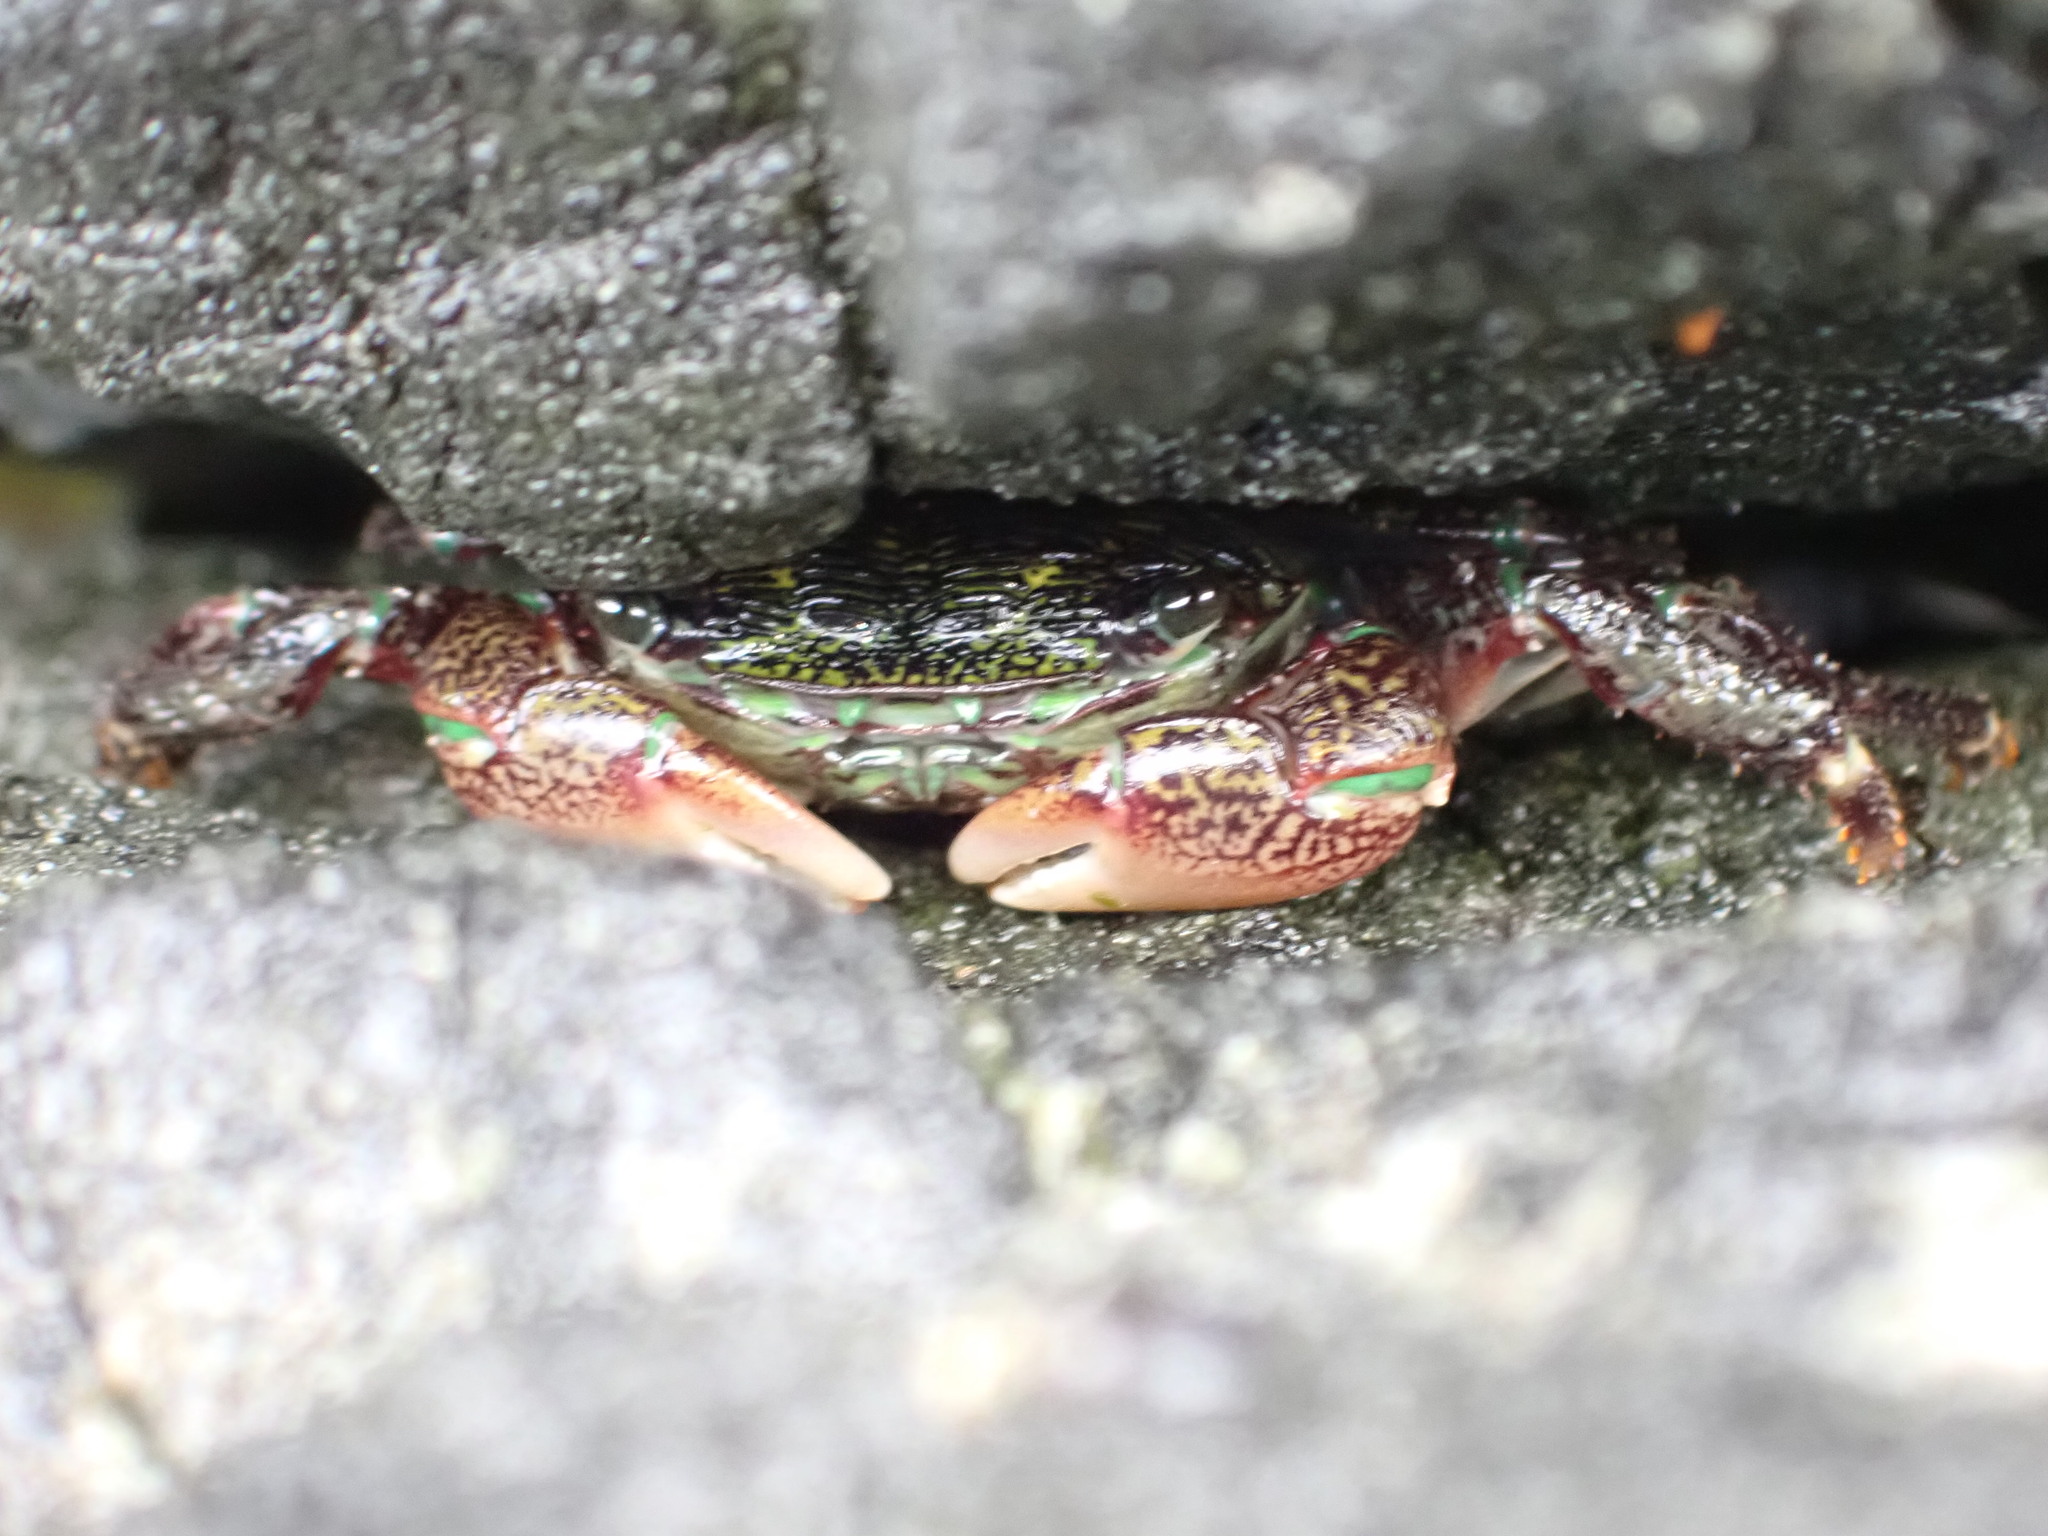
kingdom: Animalia
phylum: Arthropoda
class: Malacostraca
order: Decapoda
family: Grapsidae
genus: Pachygrapsus
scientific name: Pachygrapsus crassipes
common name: Striped shore crab
